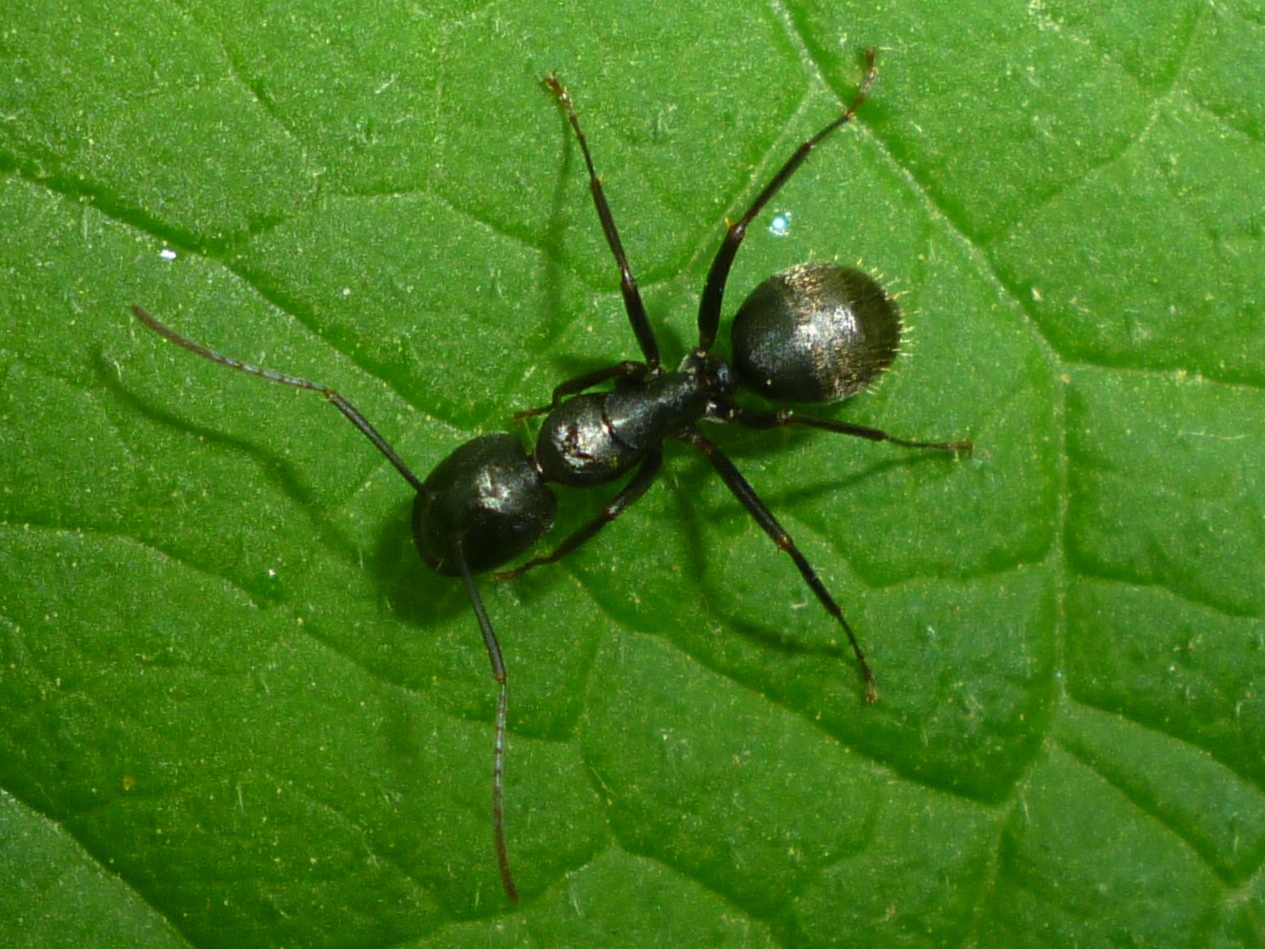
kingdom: Animalia
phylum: Arthropoda
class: Insecta
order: Hymenoptera
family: Formicidae
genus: Camponotus
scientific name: Camponotus pennsylvanicus
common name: Black carpenter ant
